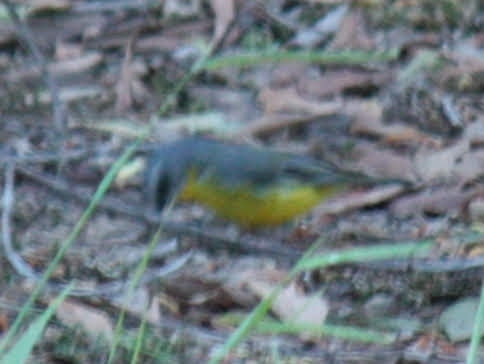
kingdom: Animalia
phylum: Chordata
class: Aves
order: Passeriformes
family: Petroicidae
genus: Eopsaltria
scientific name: Eopsaltria australis
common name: Eastern yellow robin
